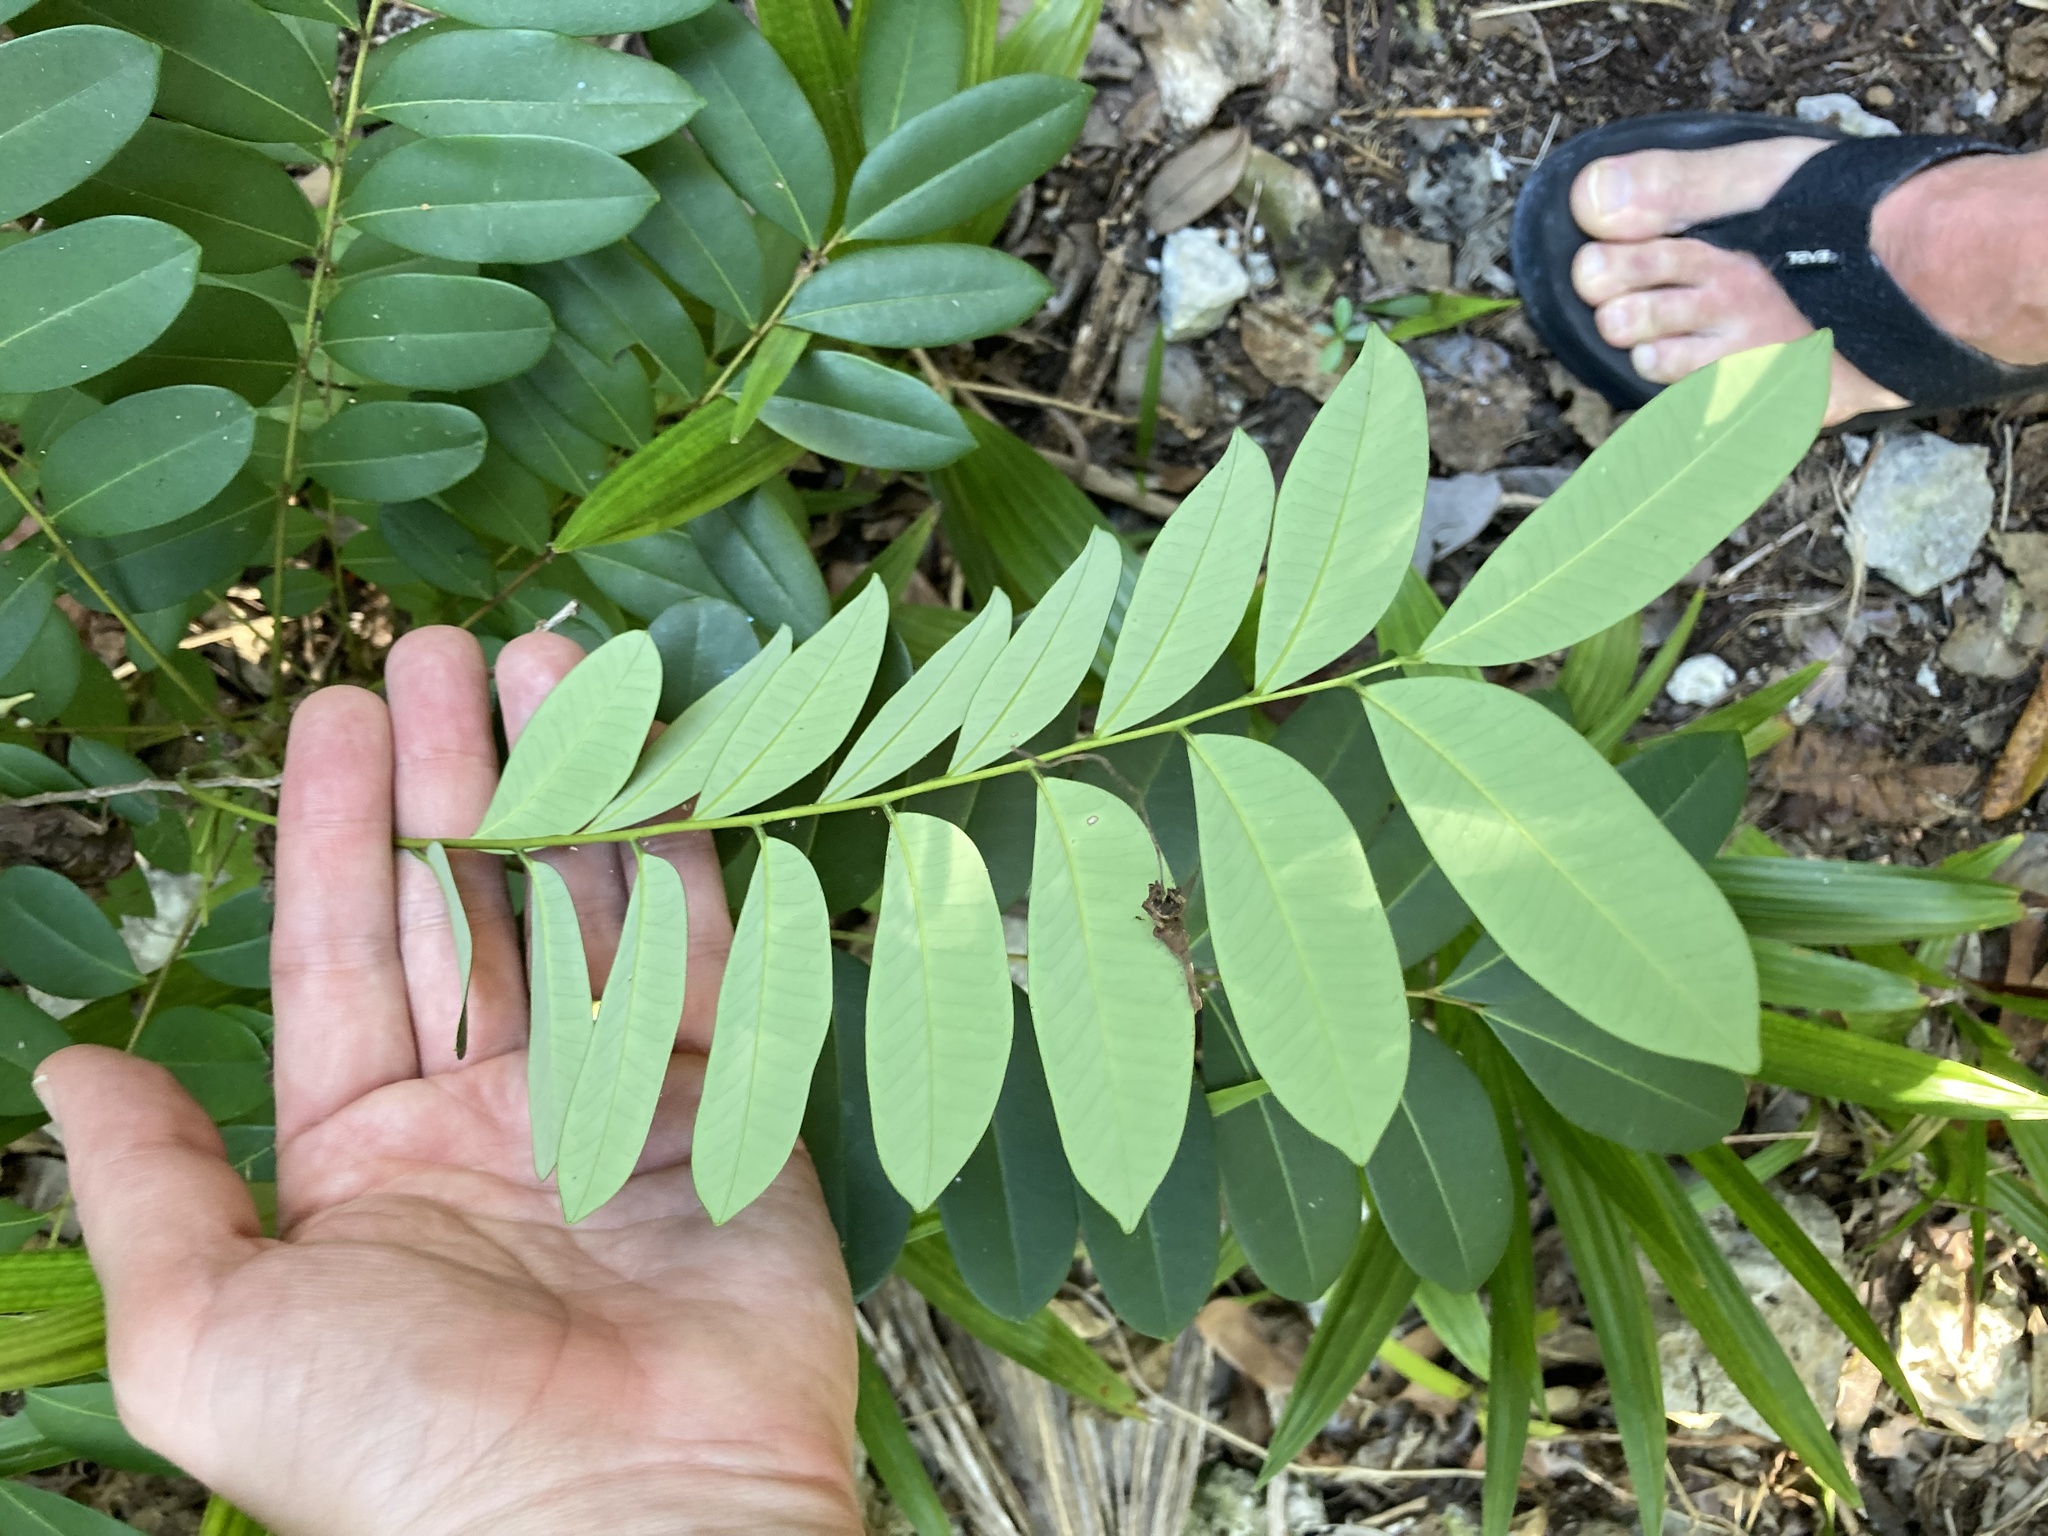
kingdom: Plantae
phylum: Tracheophyta
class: Magnoliopsida
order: Sapindales
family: Simaroubaceae
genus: Simarouba
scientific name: Simarouba glauca
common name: Dysentery-bark
